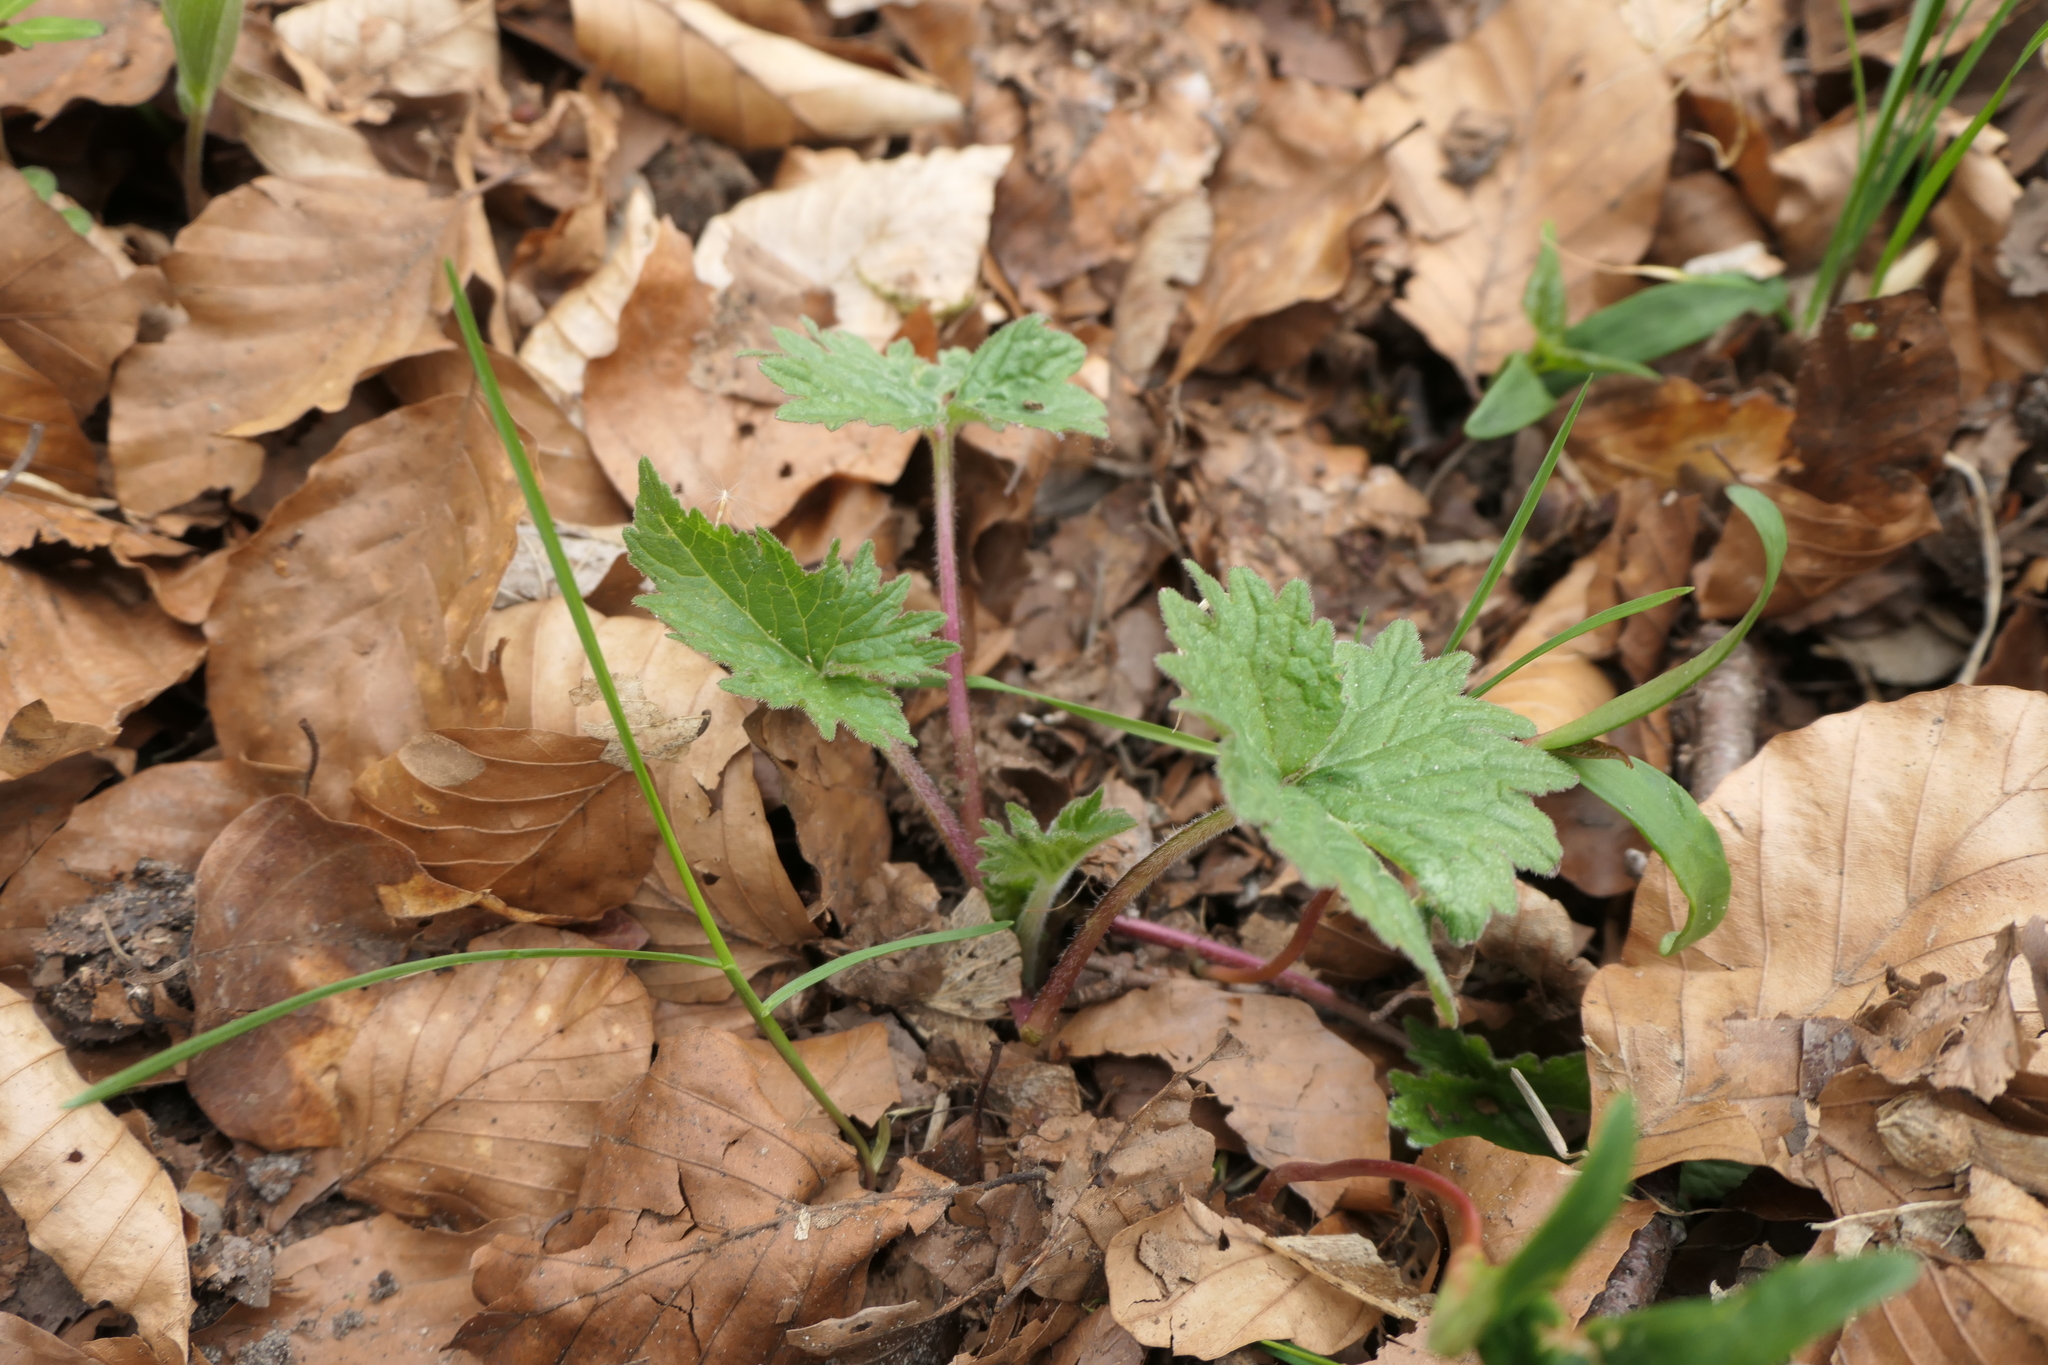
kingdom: Plantae
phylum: Tracheophyta
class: Magnoliopsida
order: Asterales
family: Campanulaceae
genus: Campanula
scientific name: Campanula trachelium
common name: Nettle-leaved bellflower
